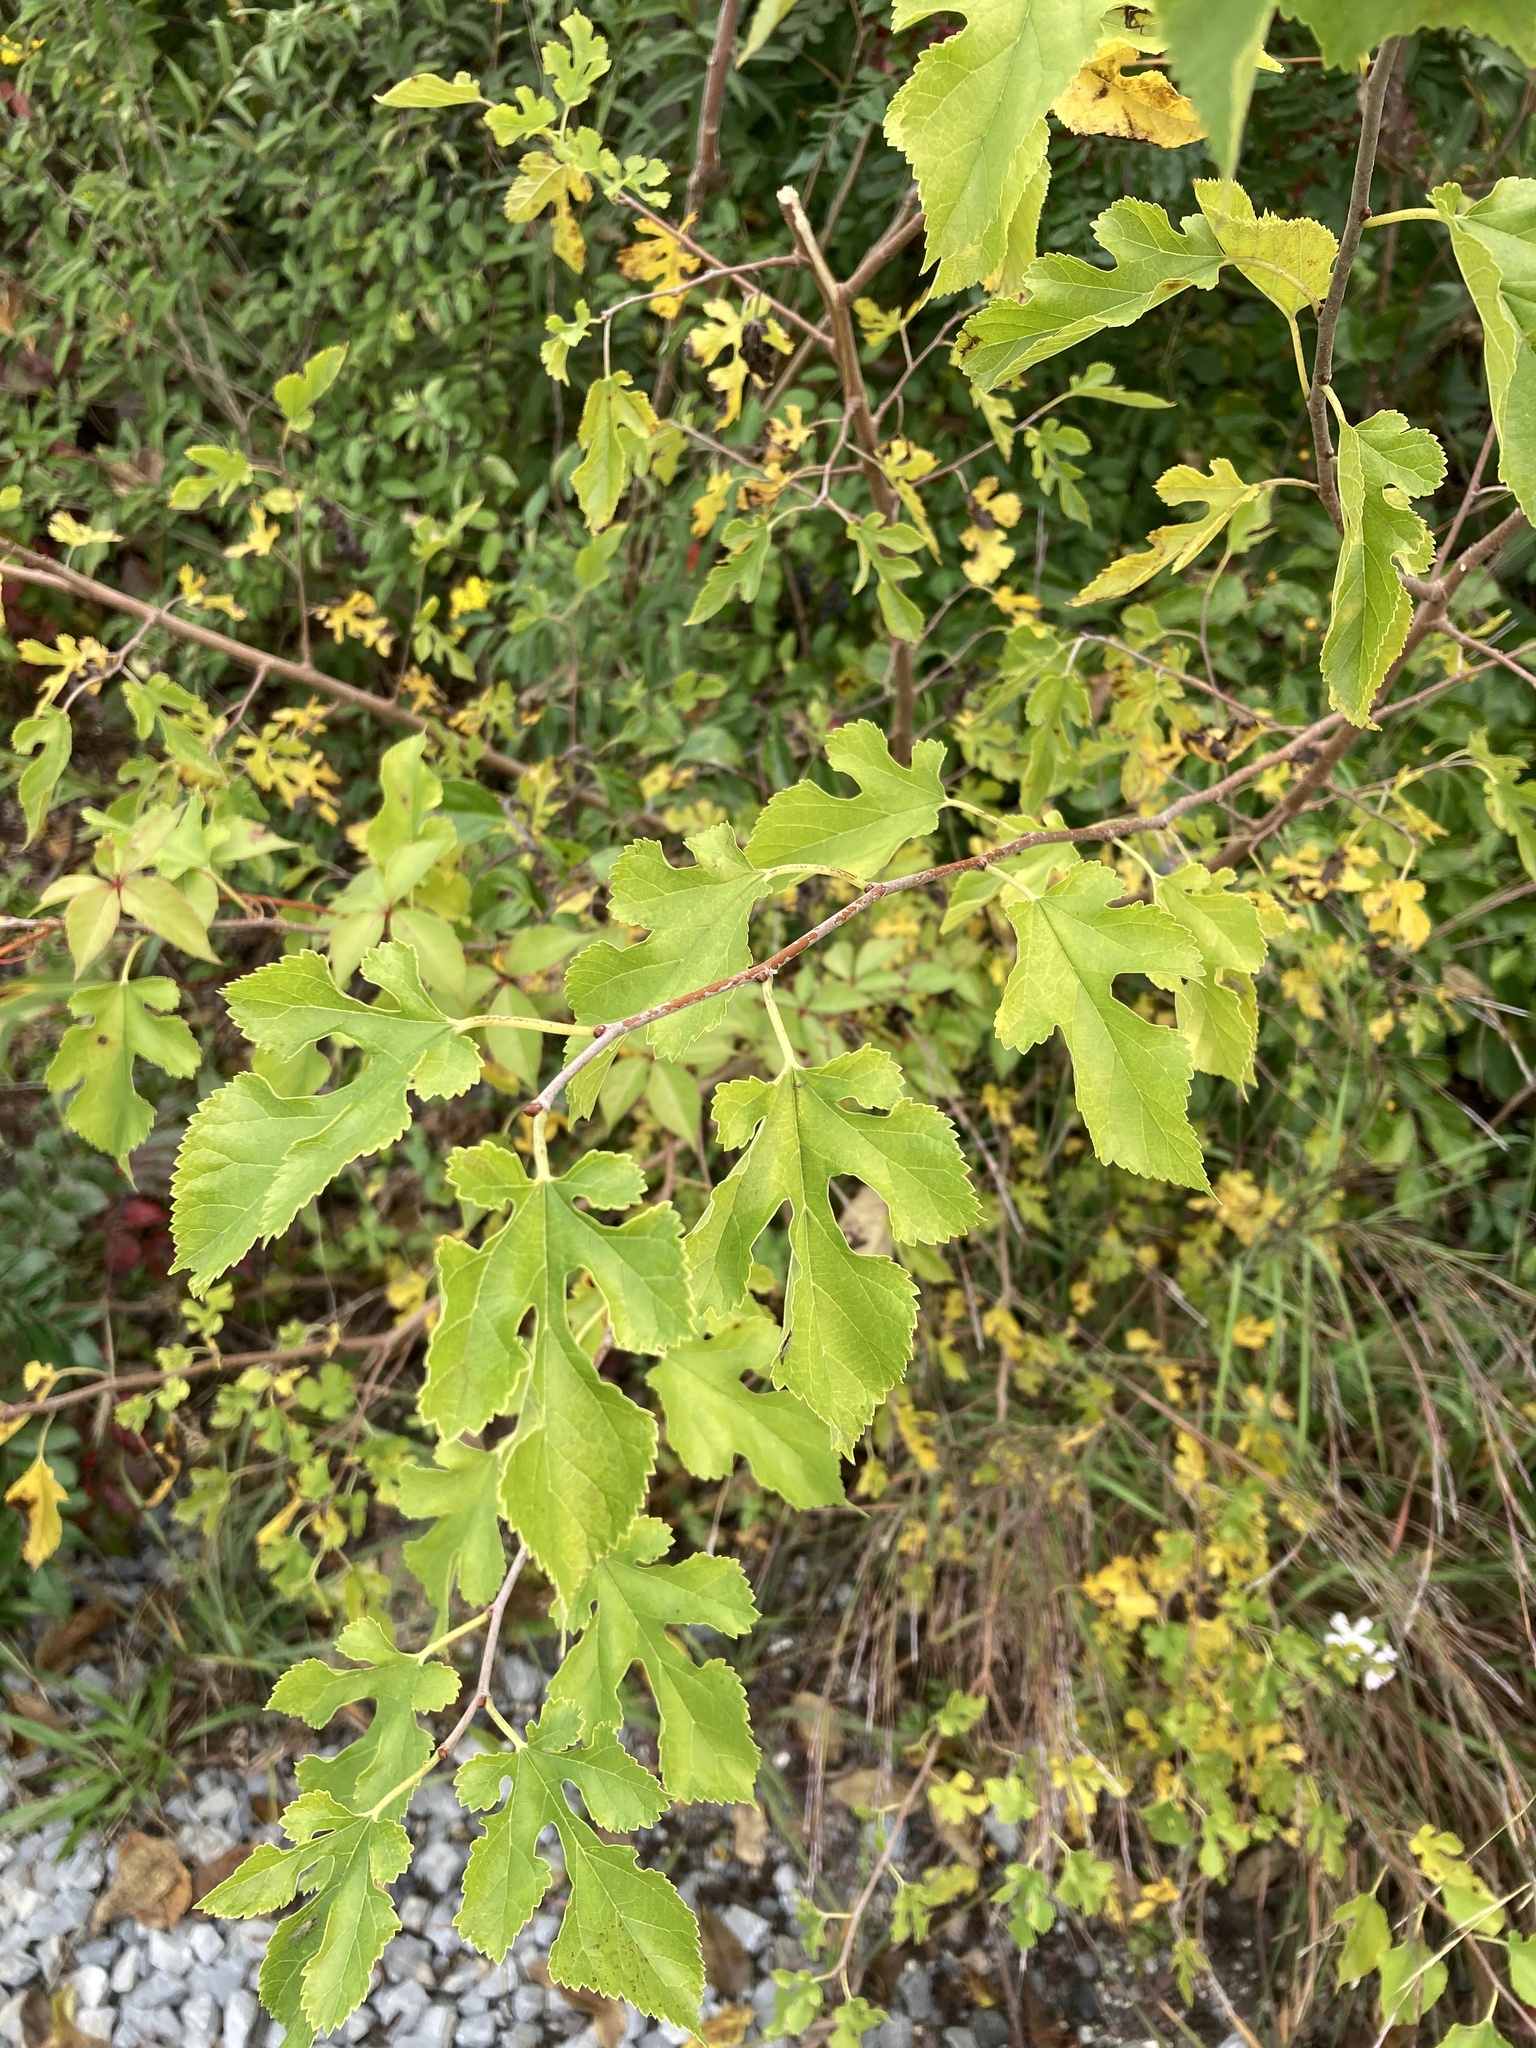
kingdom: Plantae
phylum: Tracheophyta
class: Magnoliopsida
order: Rosales
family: Moraceae
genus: Morus
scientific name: Morus alba
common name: White mulberry
